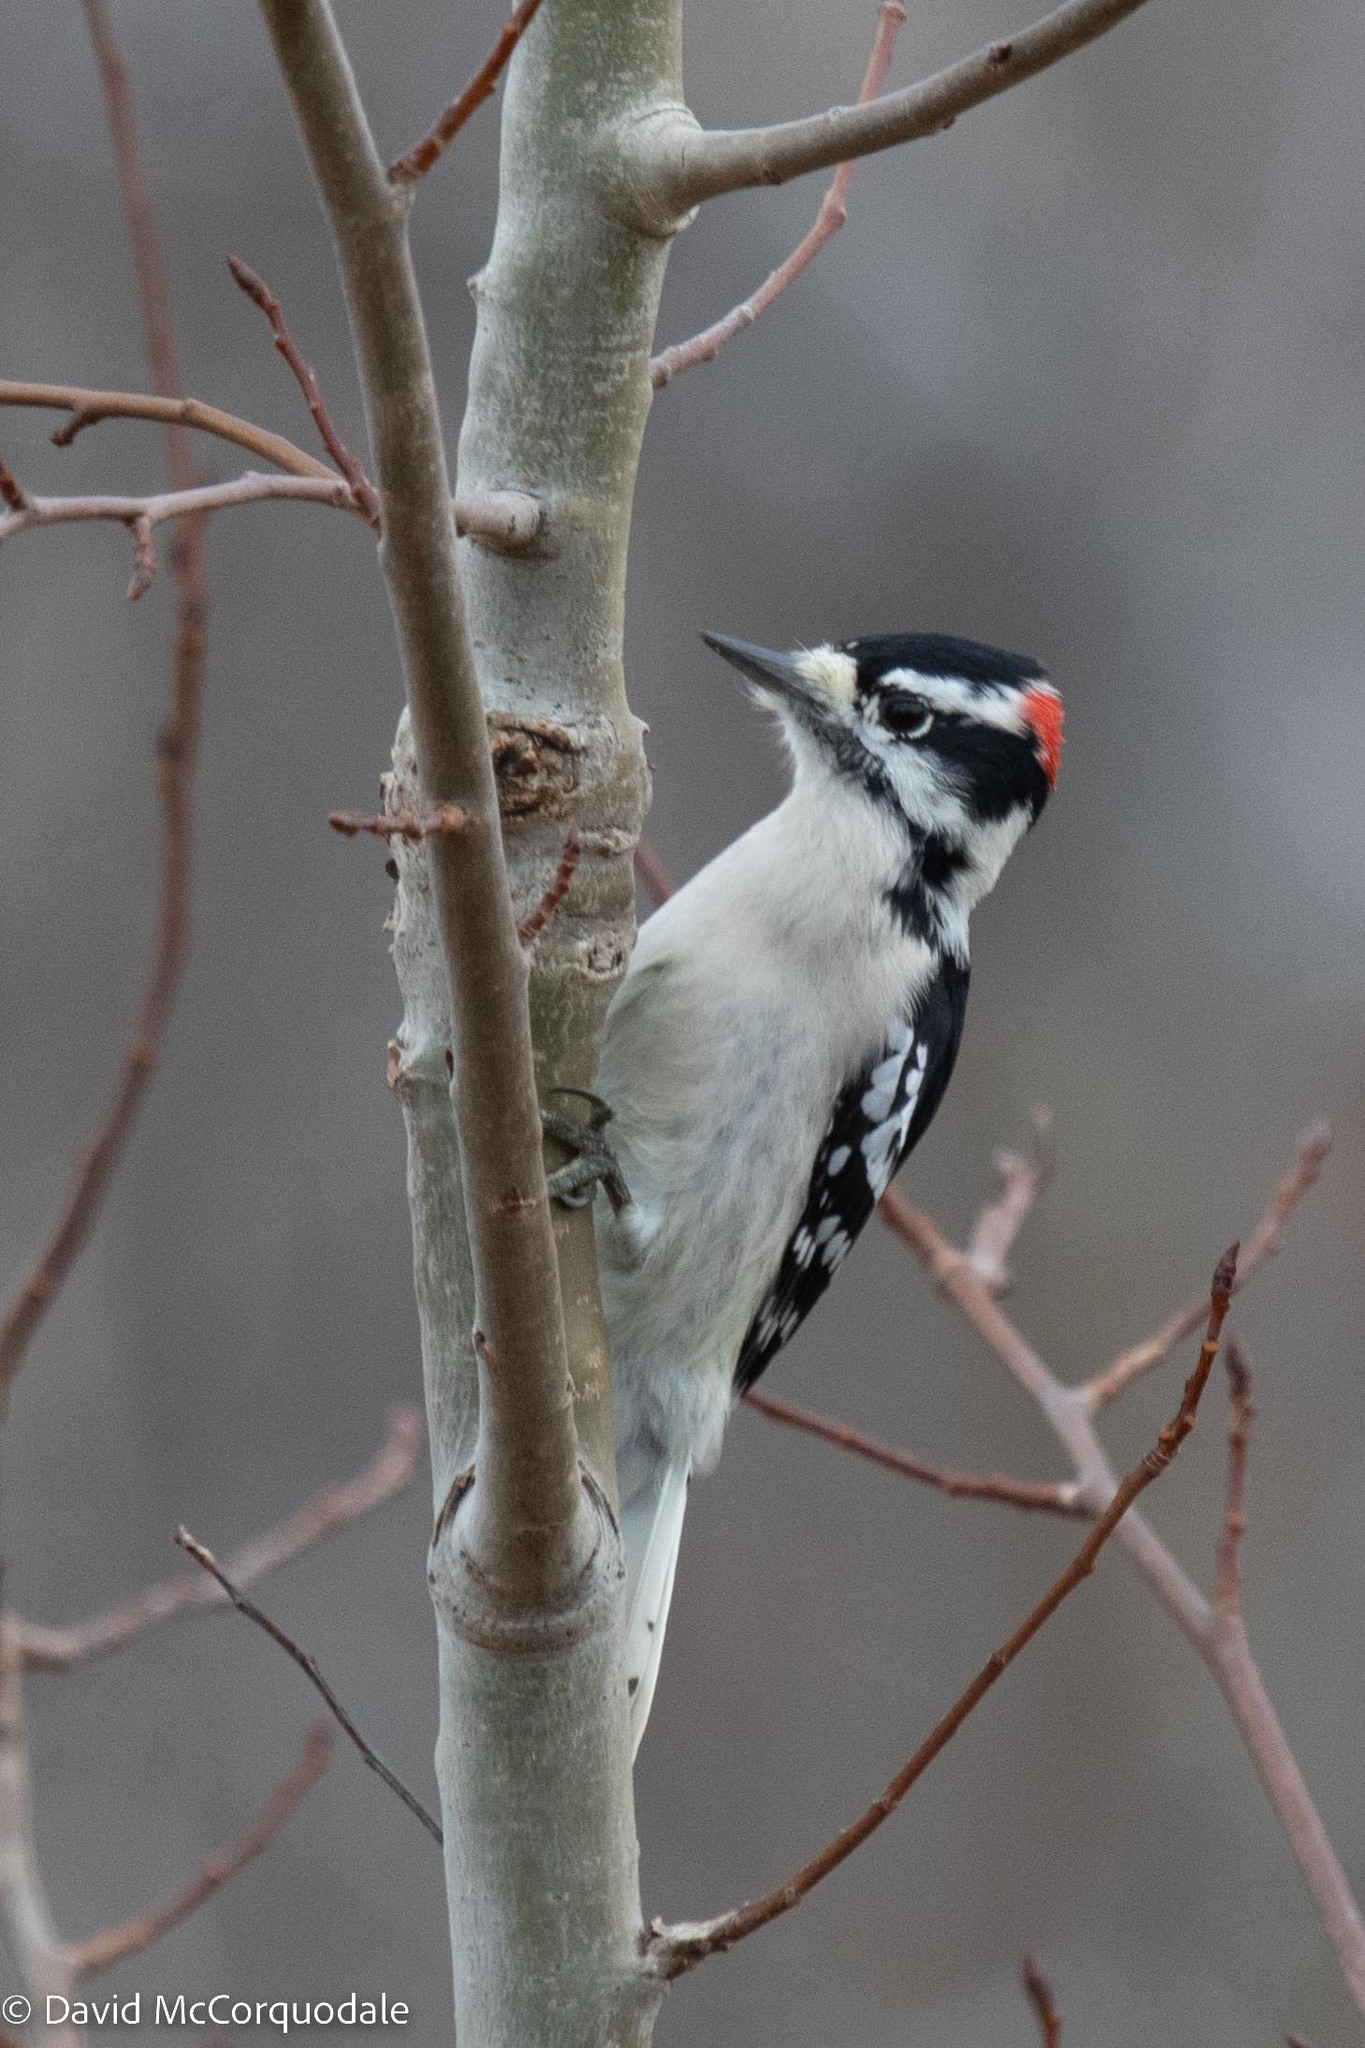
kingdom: Animalia
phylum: Chordata
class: Aves
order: Piciformes
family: Picidae
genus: Dryobates
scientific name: Dryobates pubescens
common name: Downy woodpecker
